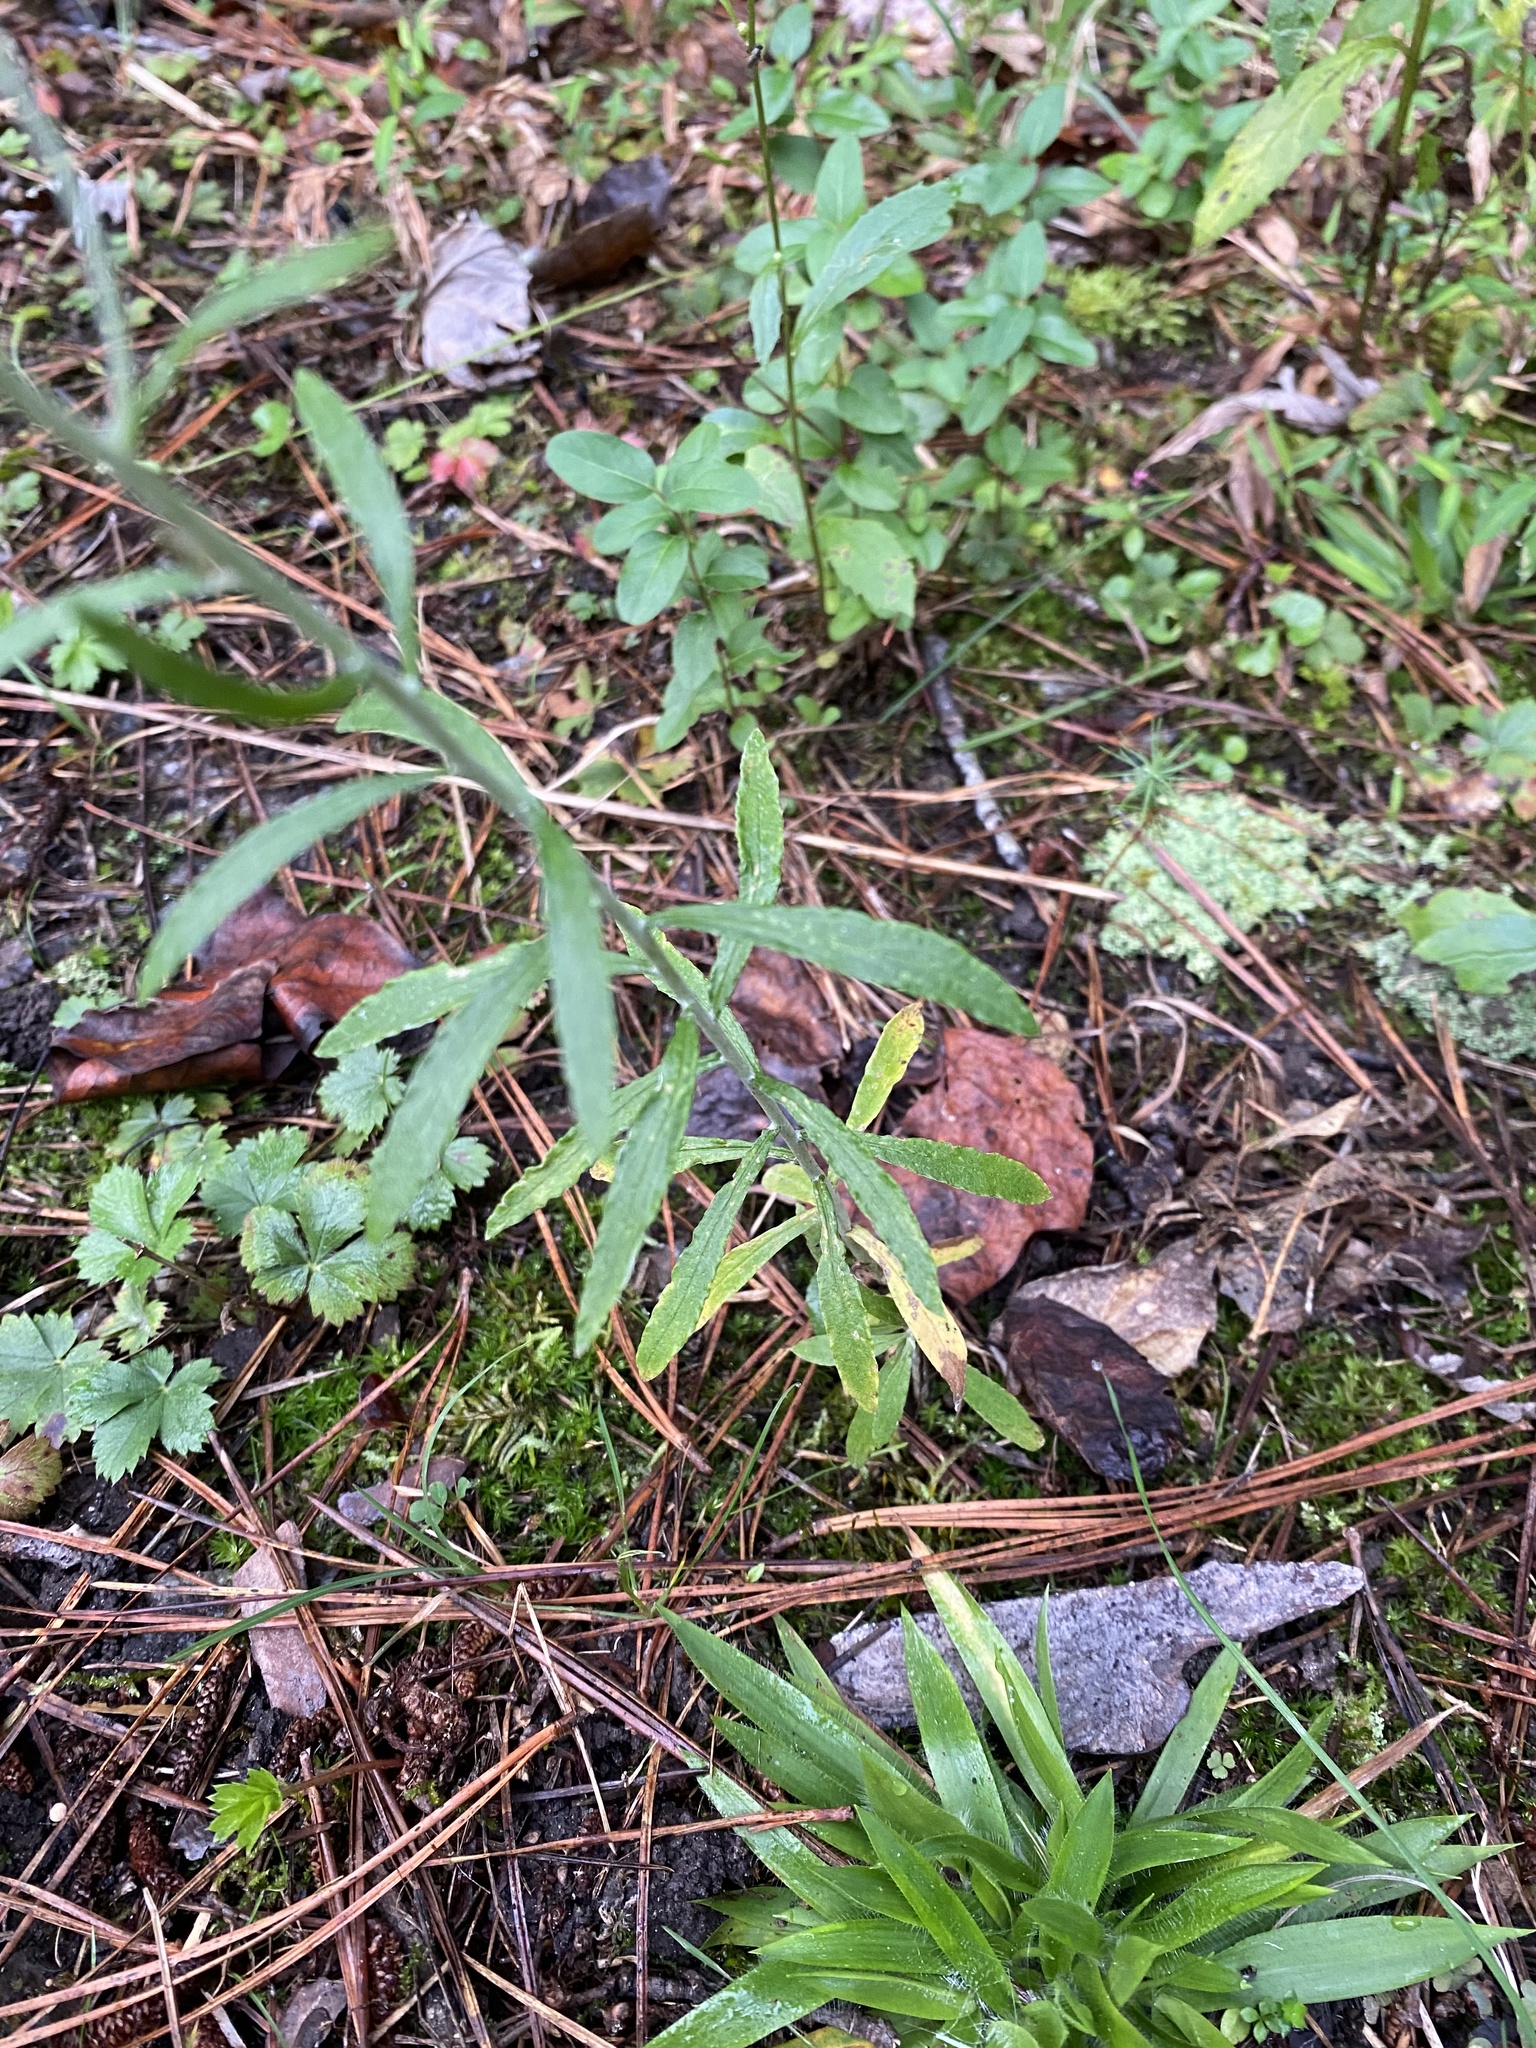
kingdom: Plantae
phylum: Tracheophyta
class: Magnoliopsida
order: Asterales
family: Asteraceae
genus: Pseudognaphalium
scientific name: Pseudognaphalium obtusifolium
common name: Eastern rabbit-tobacco
